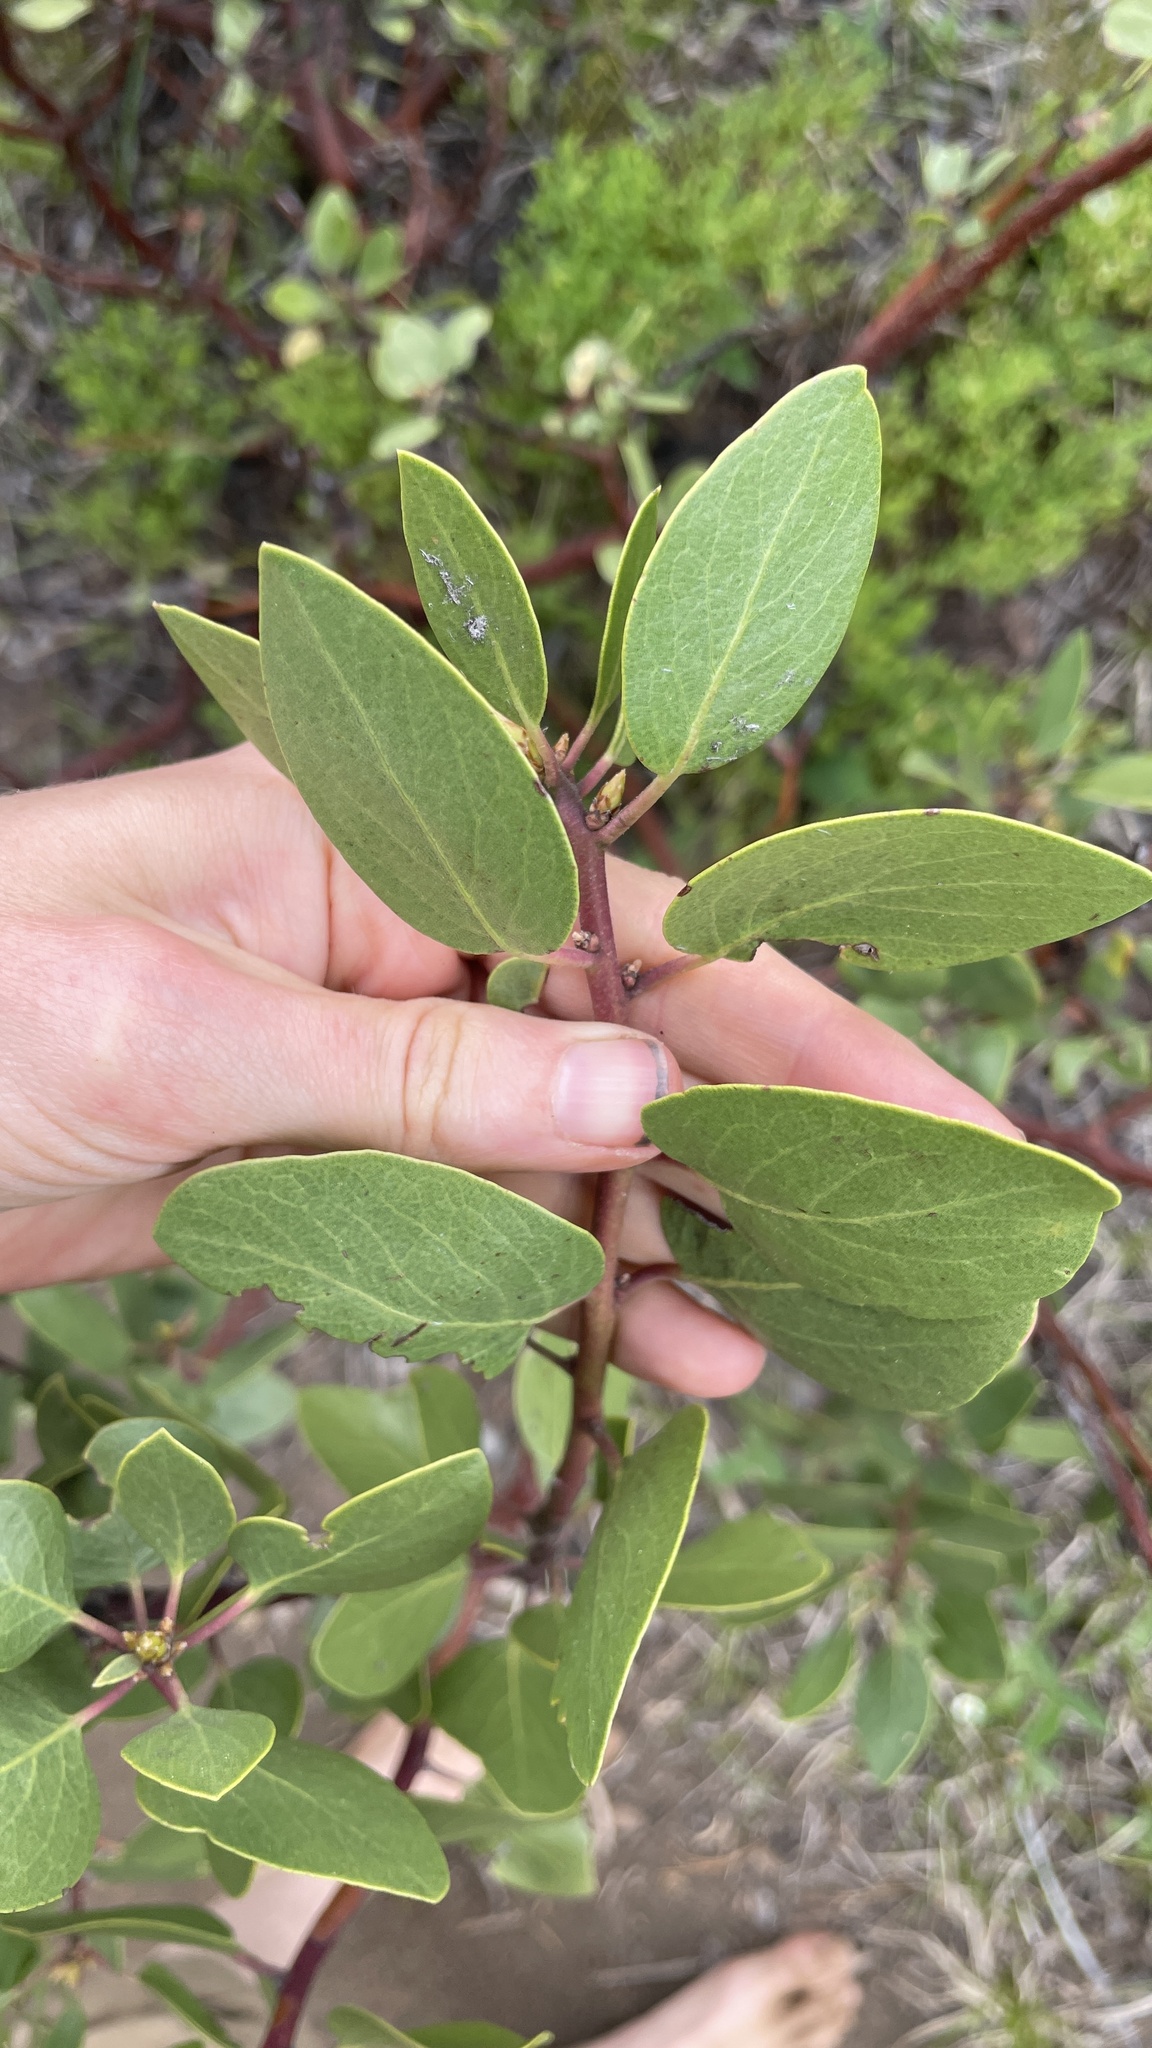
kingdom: Plantae
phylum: Tracheophyta
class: Magnoliopsida
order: Ericales
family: Ericaceae
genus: Arctostaphylos
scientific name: Arctostaphylos patula
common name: Green-leaf manzanita
